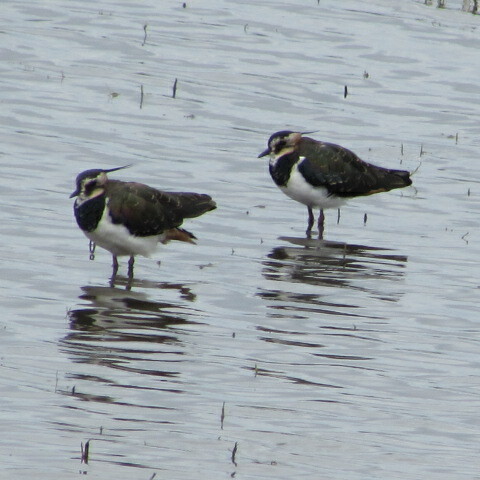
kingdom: Animalia
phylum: Chordata
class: Aves
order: Charadriiformes
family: Charadriidae
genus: Vanellus
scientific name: Vanellus vanellus
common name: Northern lapwing
